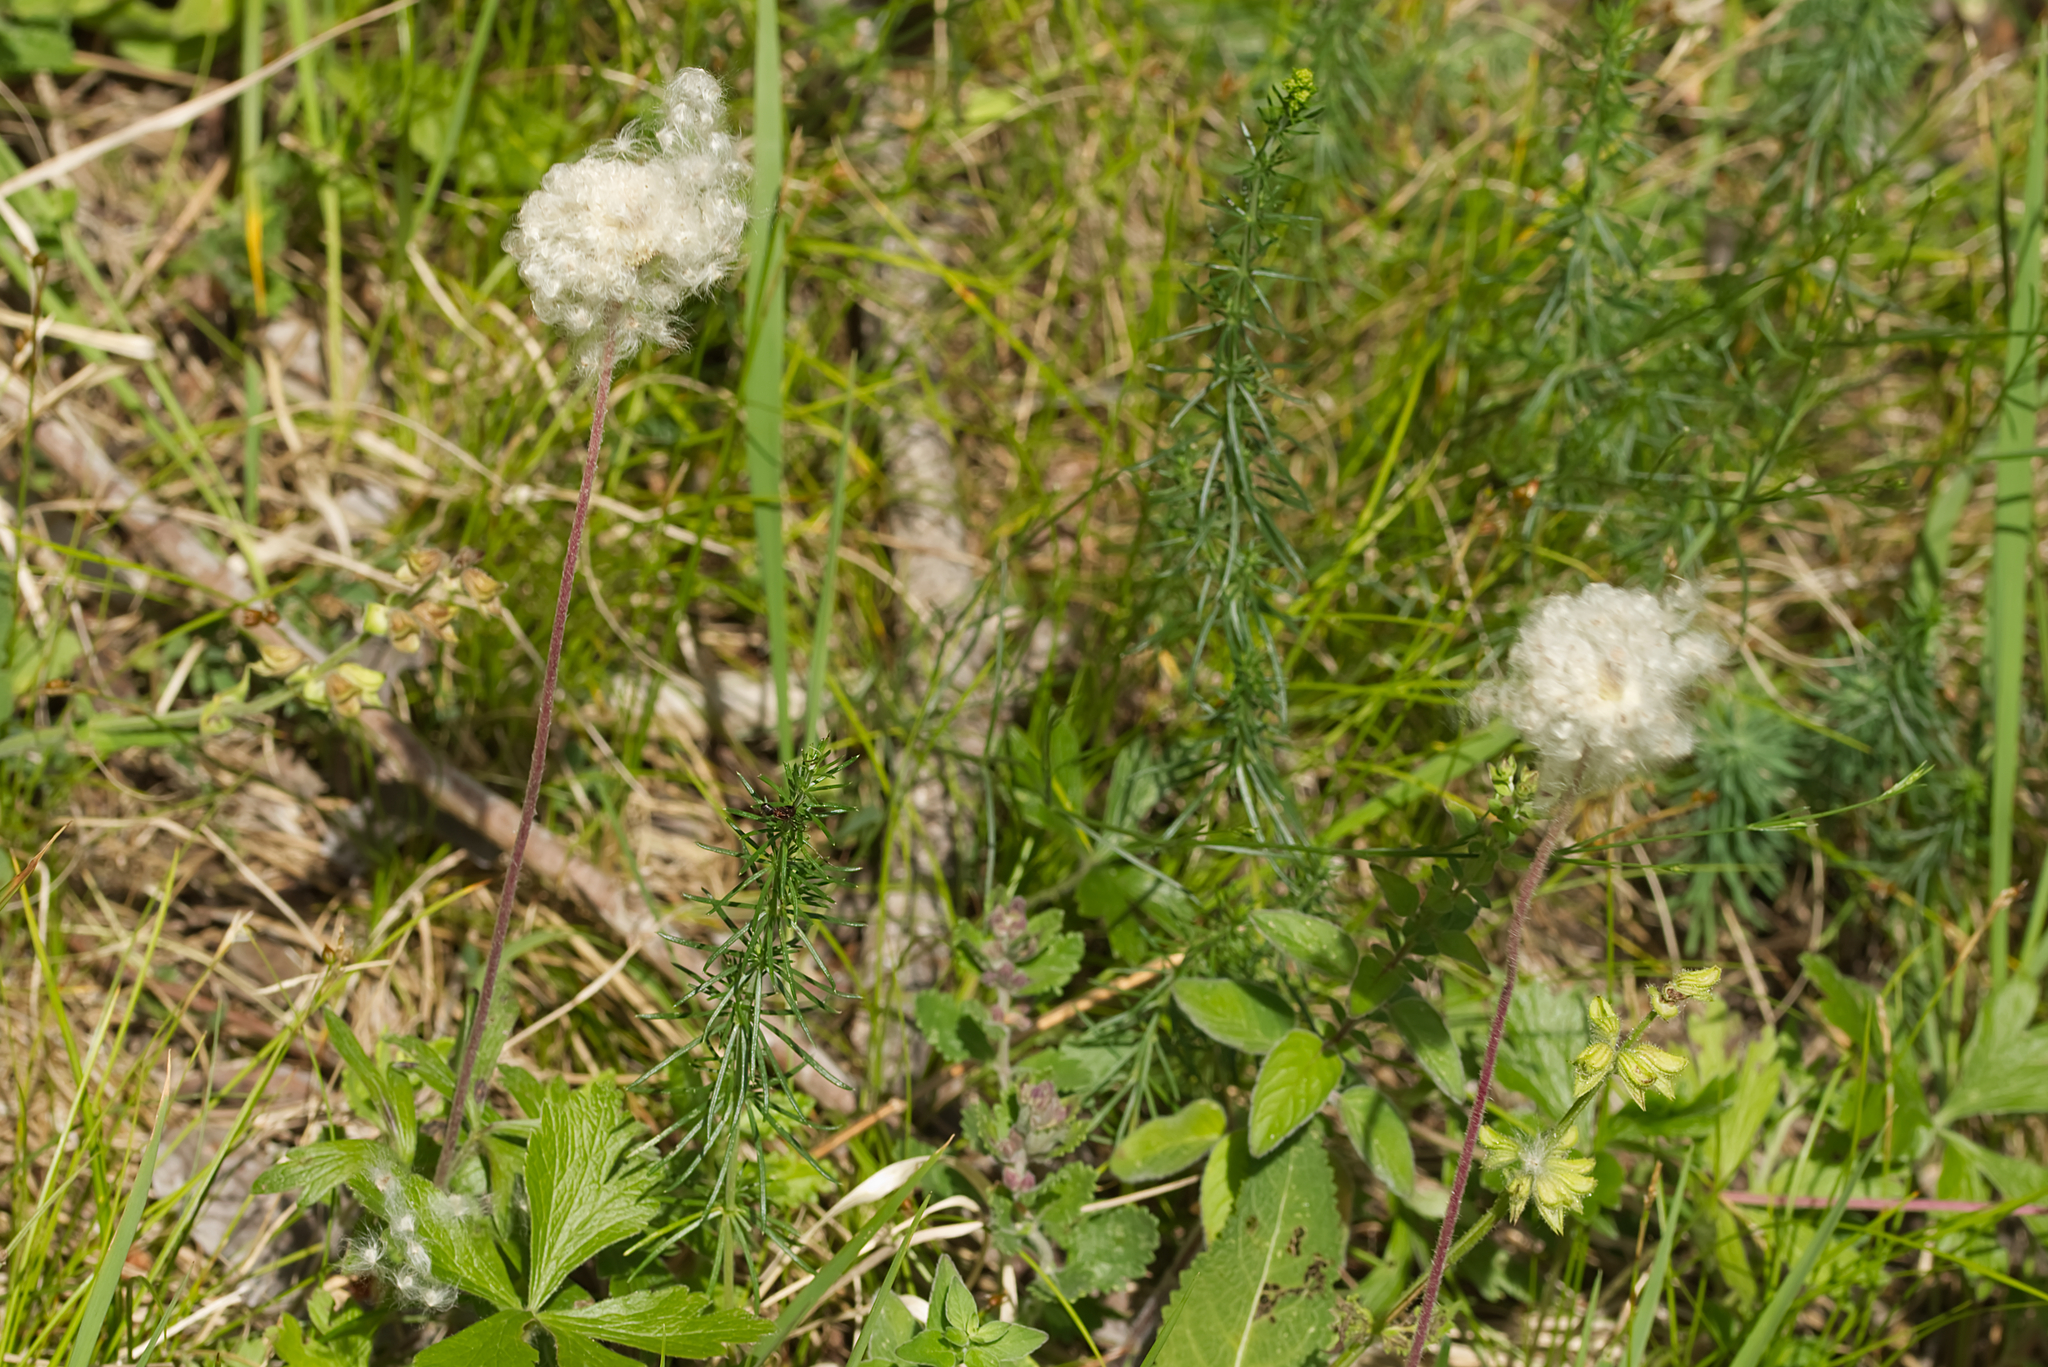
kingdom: Plantae
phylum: Tracheophyta
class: Magnoliopsida
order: Ranunculales
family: Ranunculaceae
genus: Anemone
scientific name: Anemone sylvestris
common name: Snowdrop anemone
